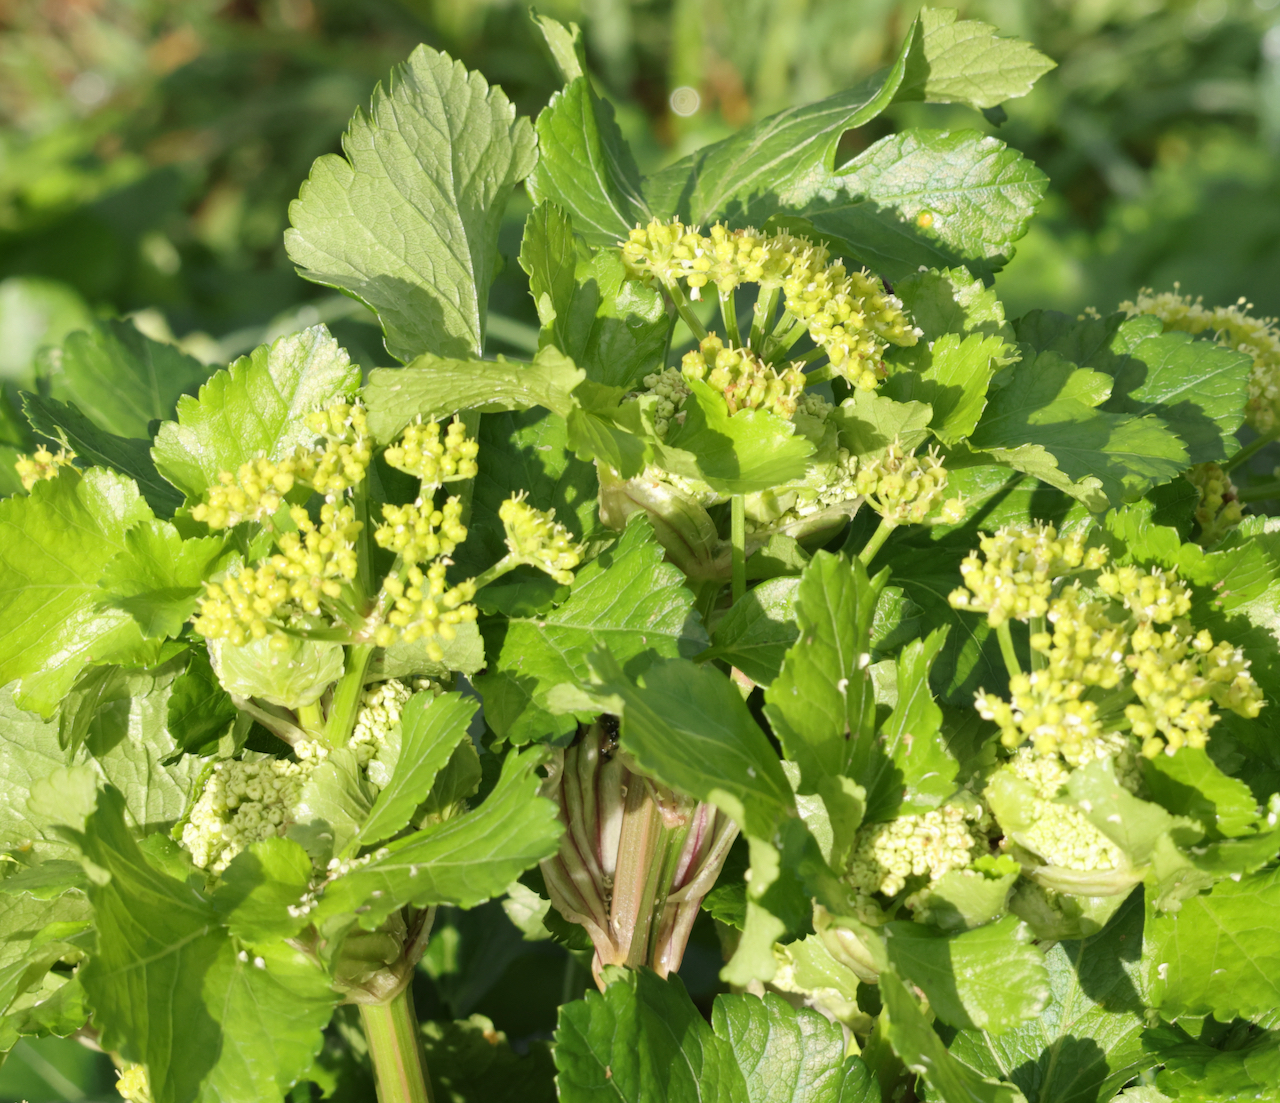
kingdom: Plantae
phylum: Tracheophyta
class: Magnoliopsida
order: Apiales
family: Apiaceae
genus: Smyrnium
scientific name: Smyrnium olusatrum
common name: Alexanders
